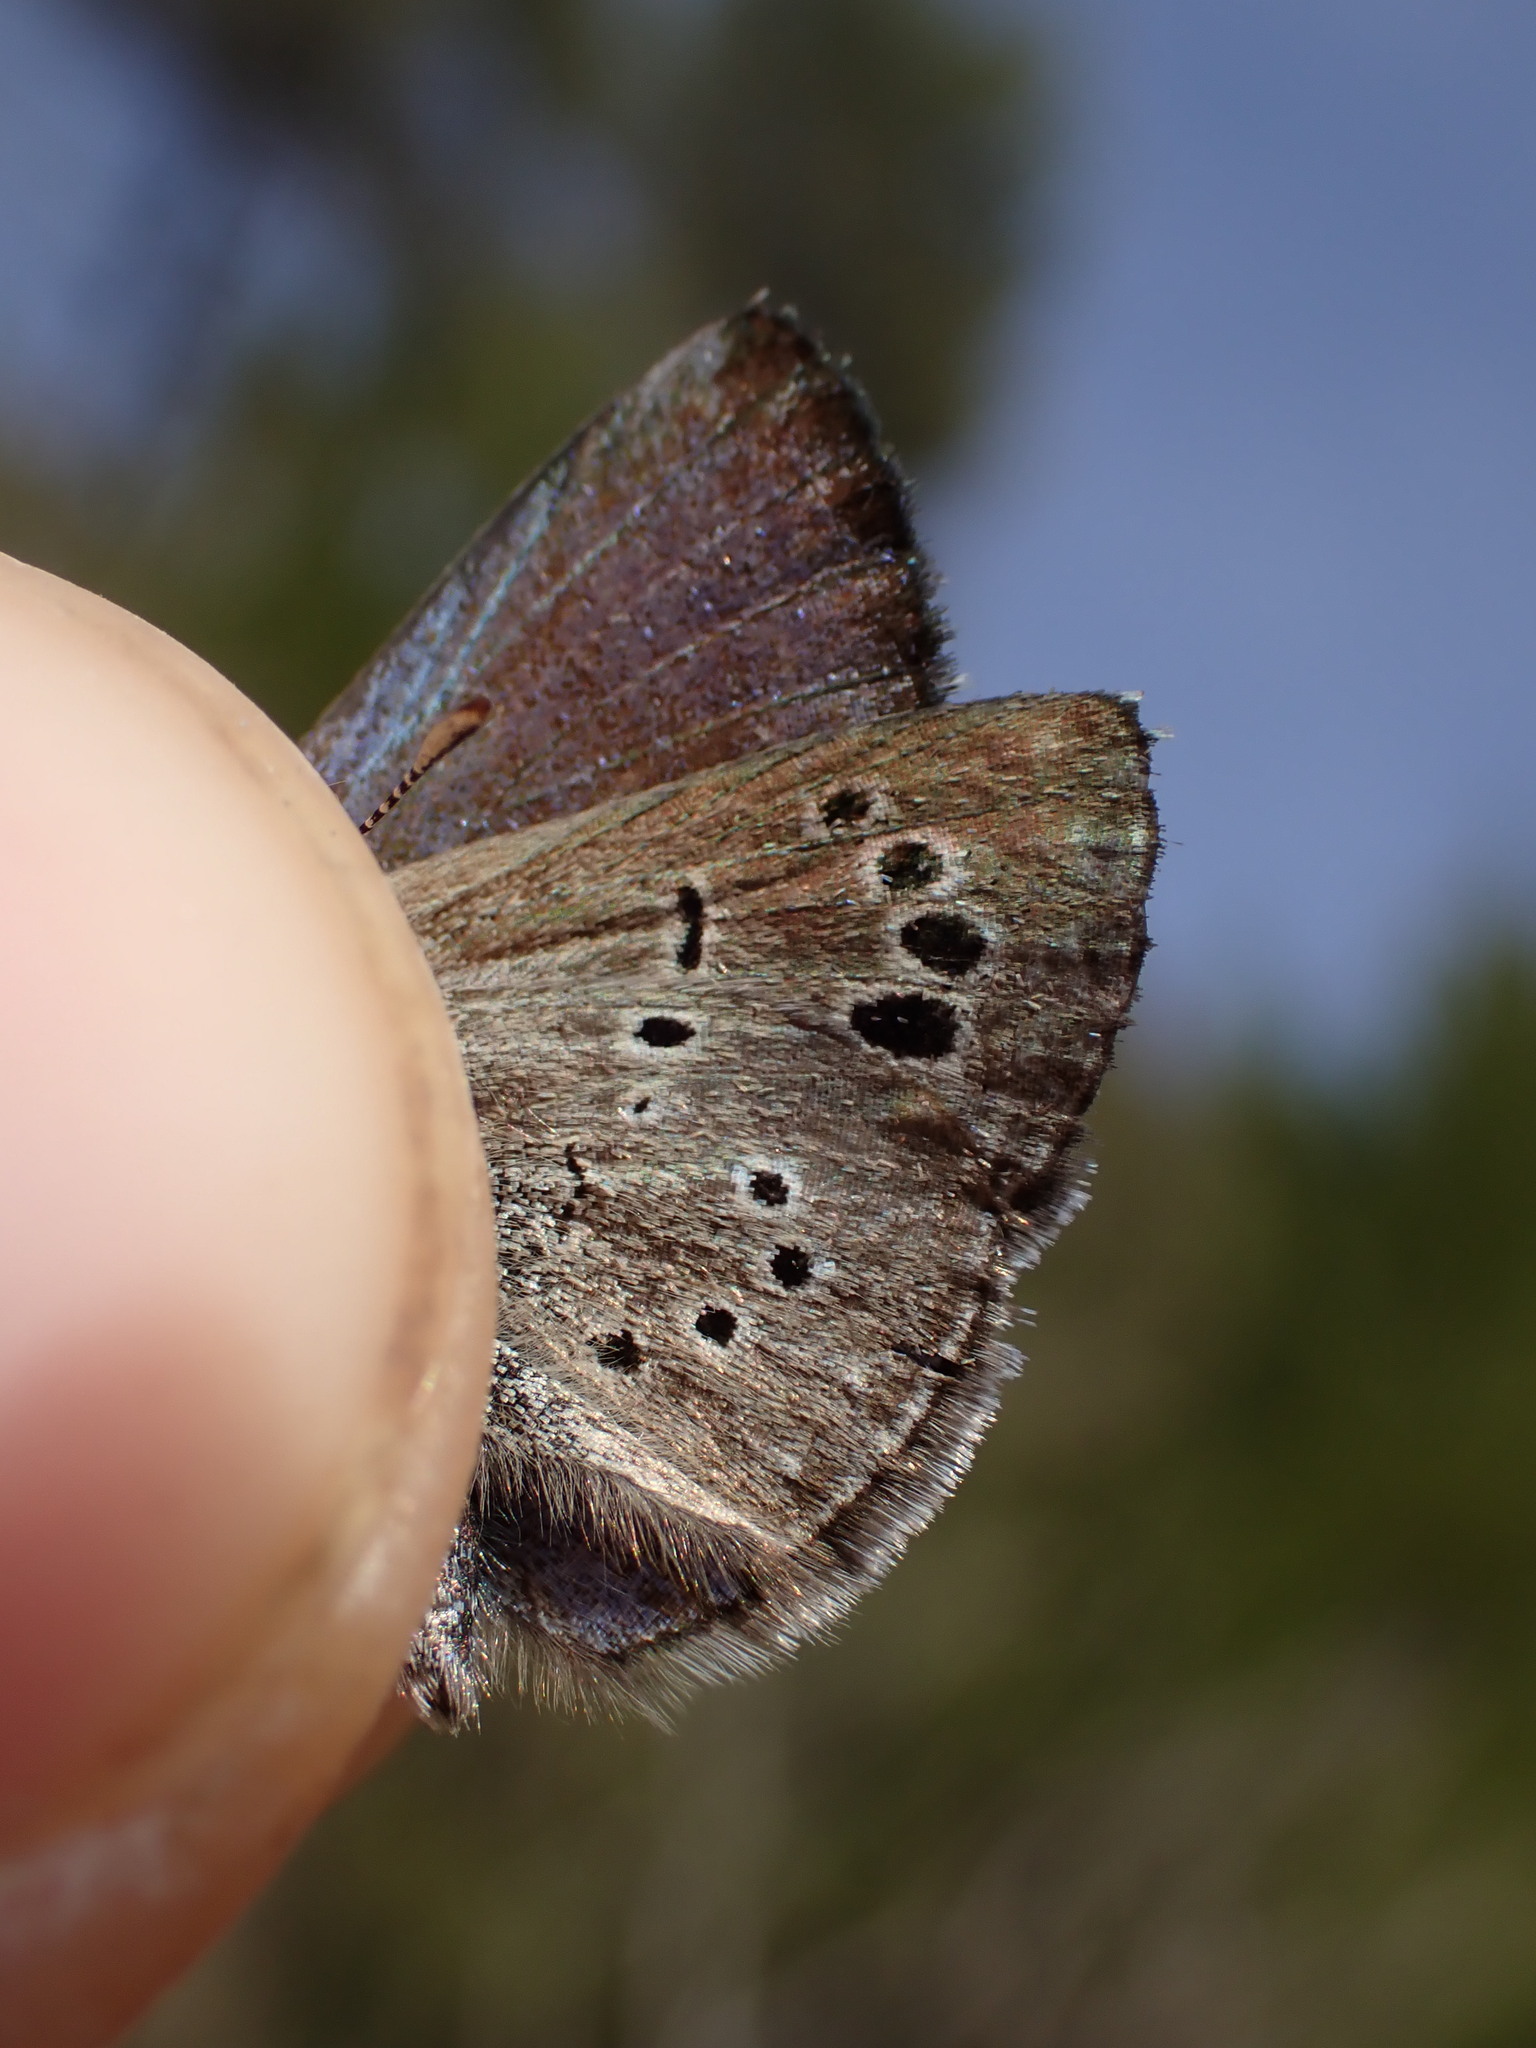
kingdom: Animalia
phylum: Arthropoda
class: Insecta
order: Lepidoptera
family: Lycaenidae
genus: Glaucopsyche
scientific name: Glaucopsyche melanops
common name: Black-eyed blue
